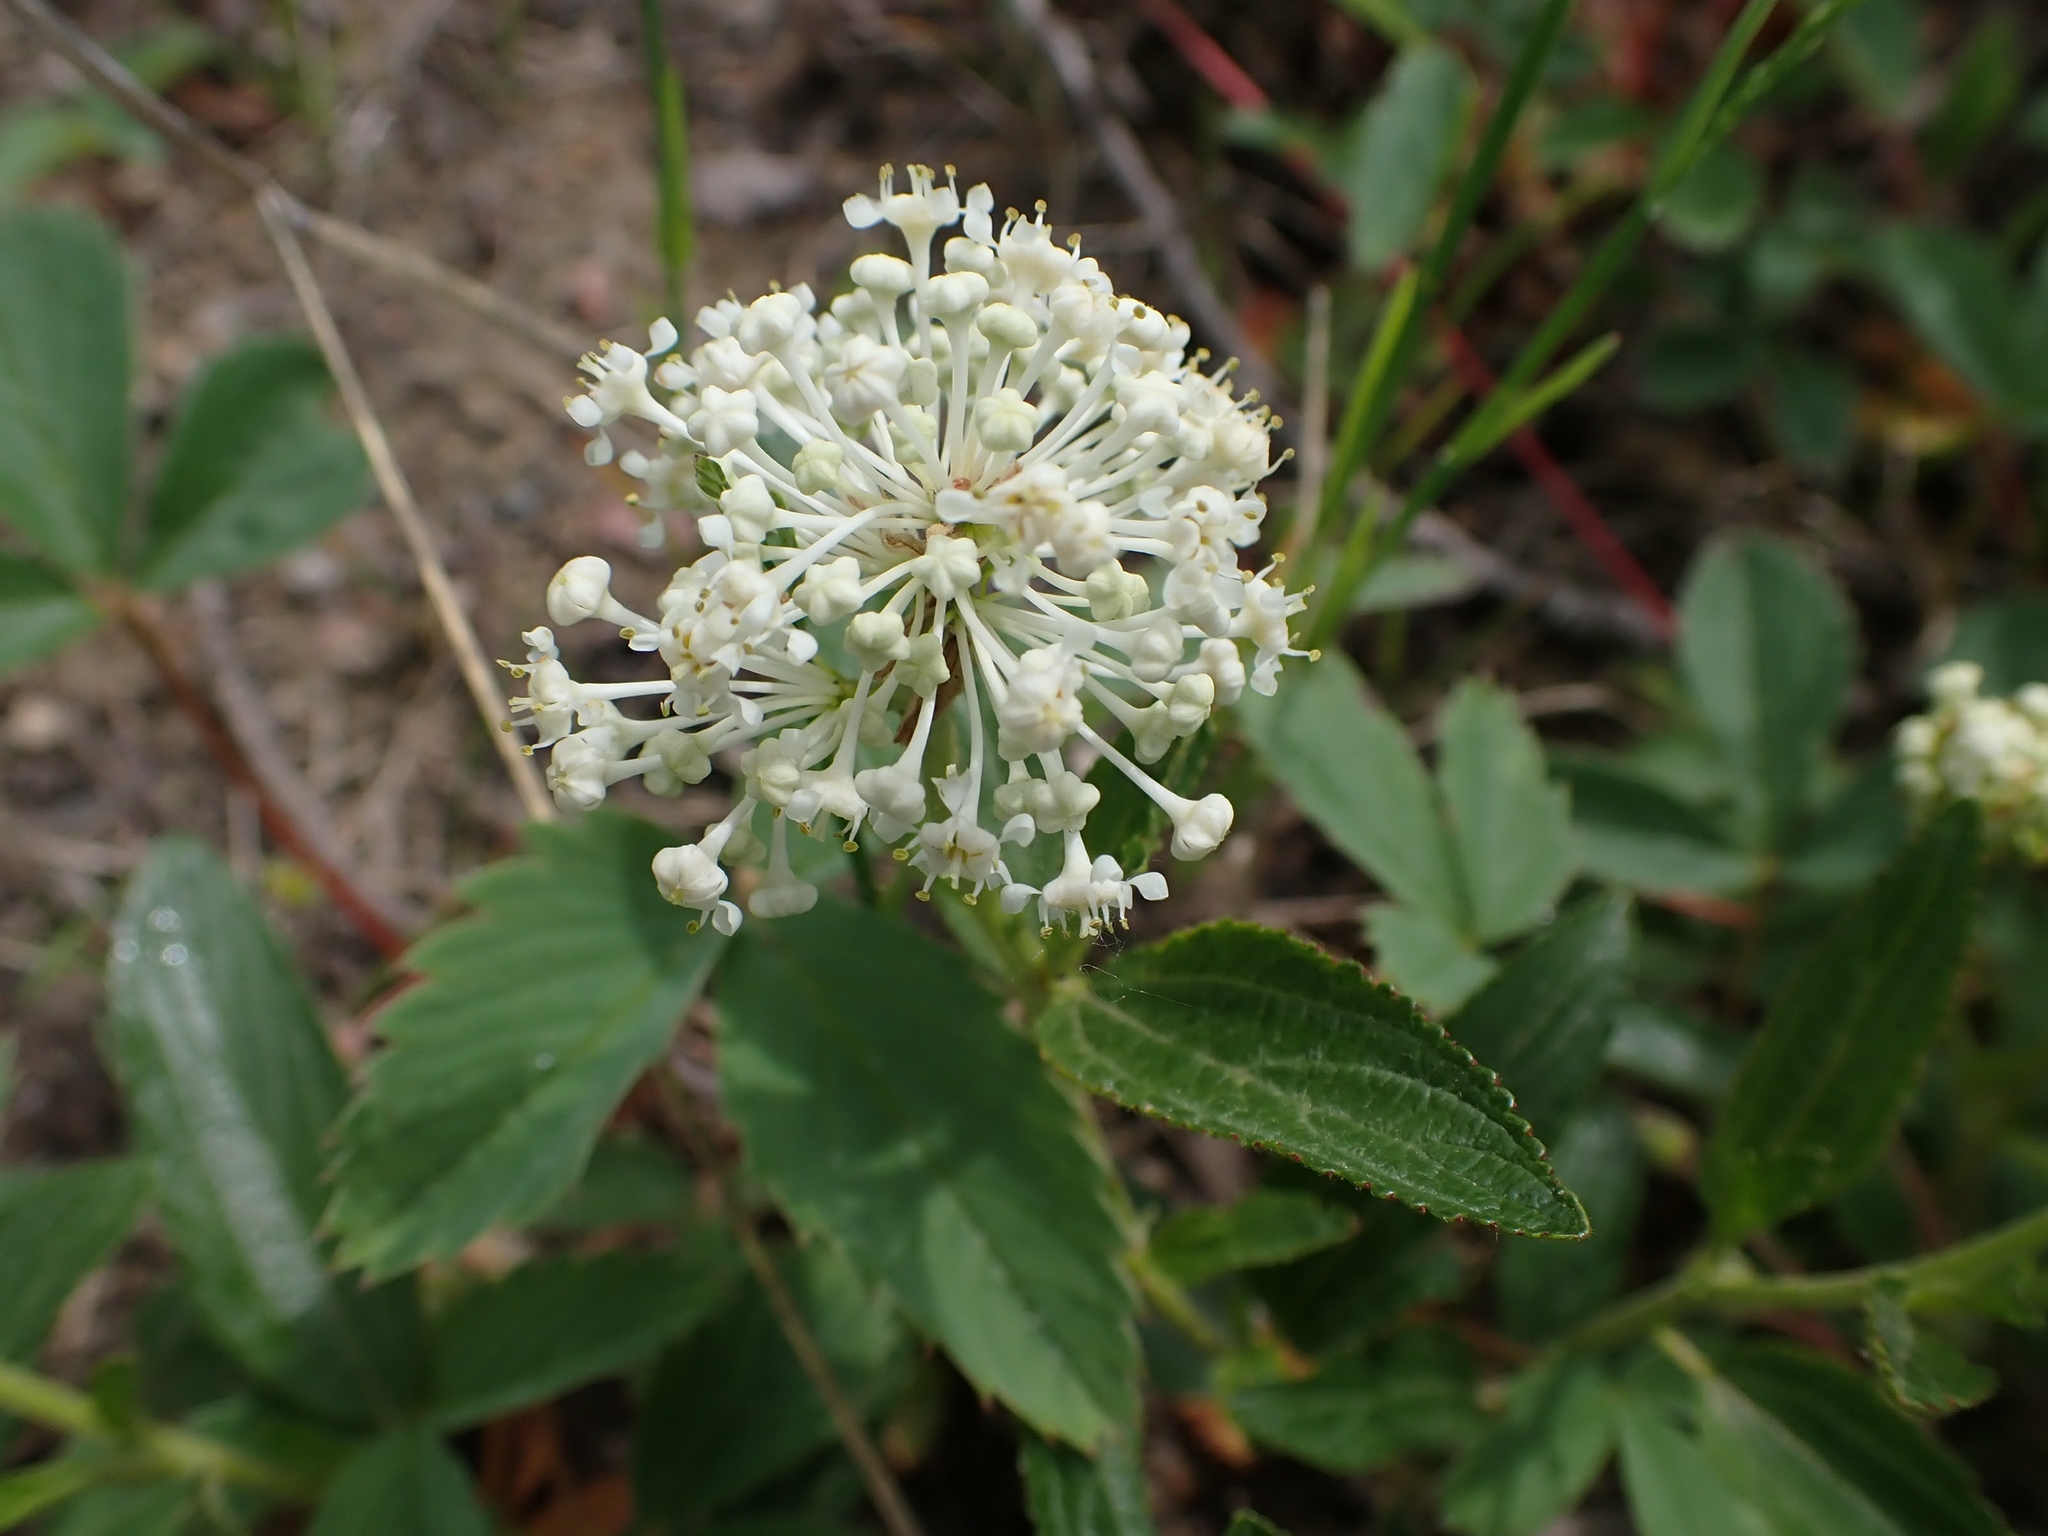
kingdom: Plantae
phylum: Tracheophyta
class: Magnoliopsida
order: Rosales
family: Rhamnaceae
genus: Ceanothus
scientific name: Ceanothus herbaceus
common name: Inland ceanothus
